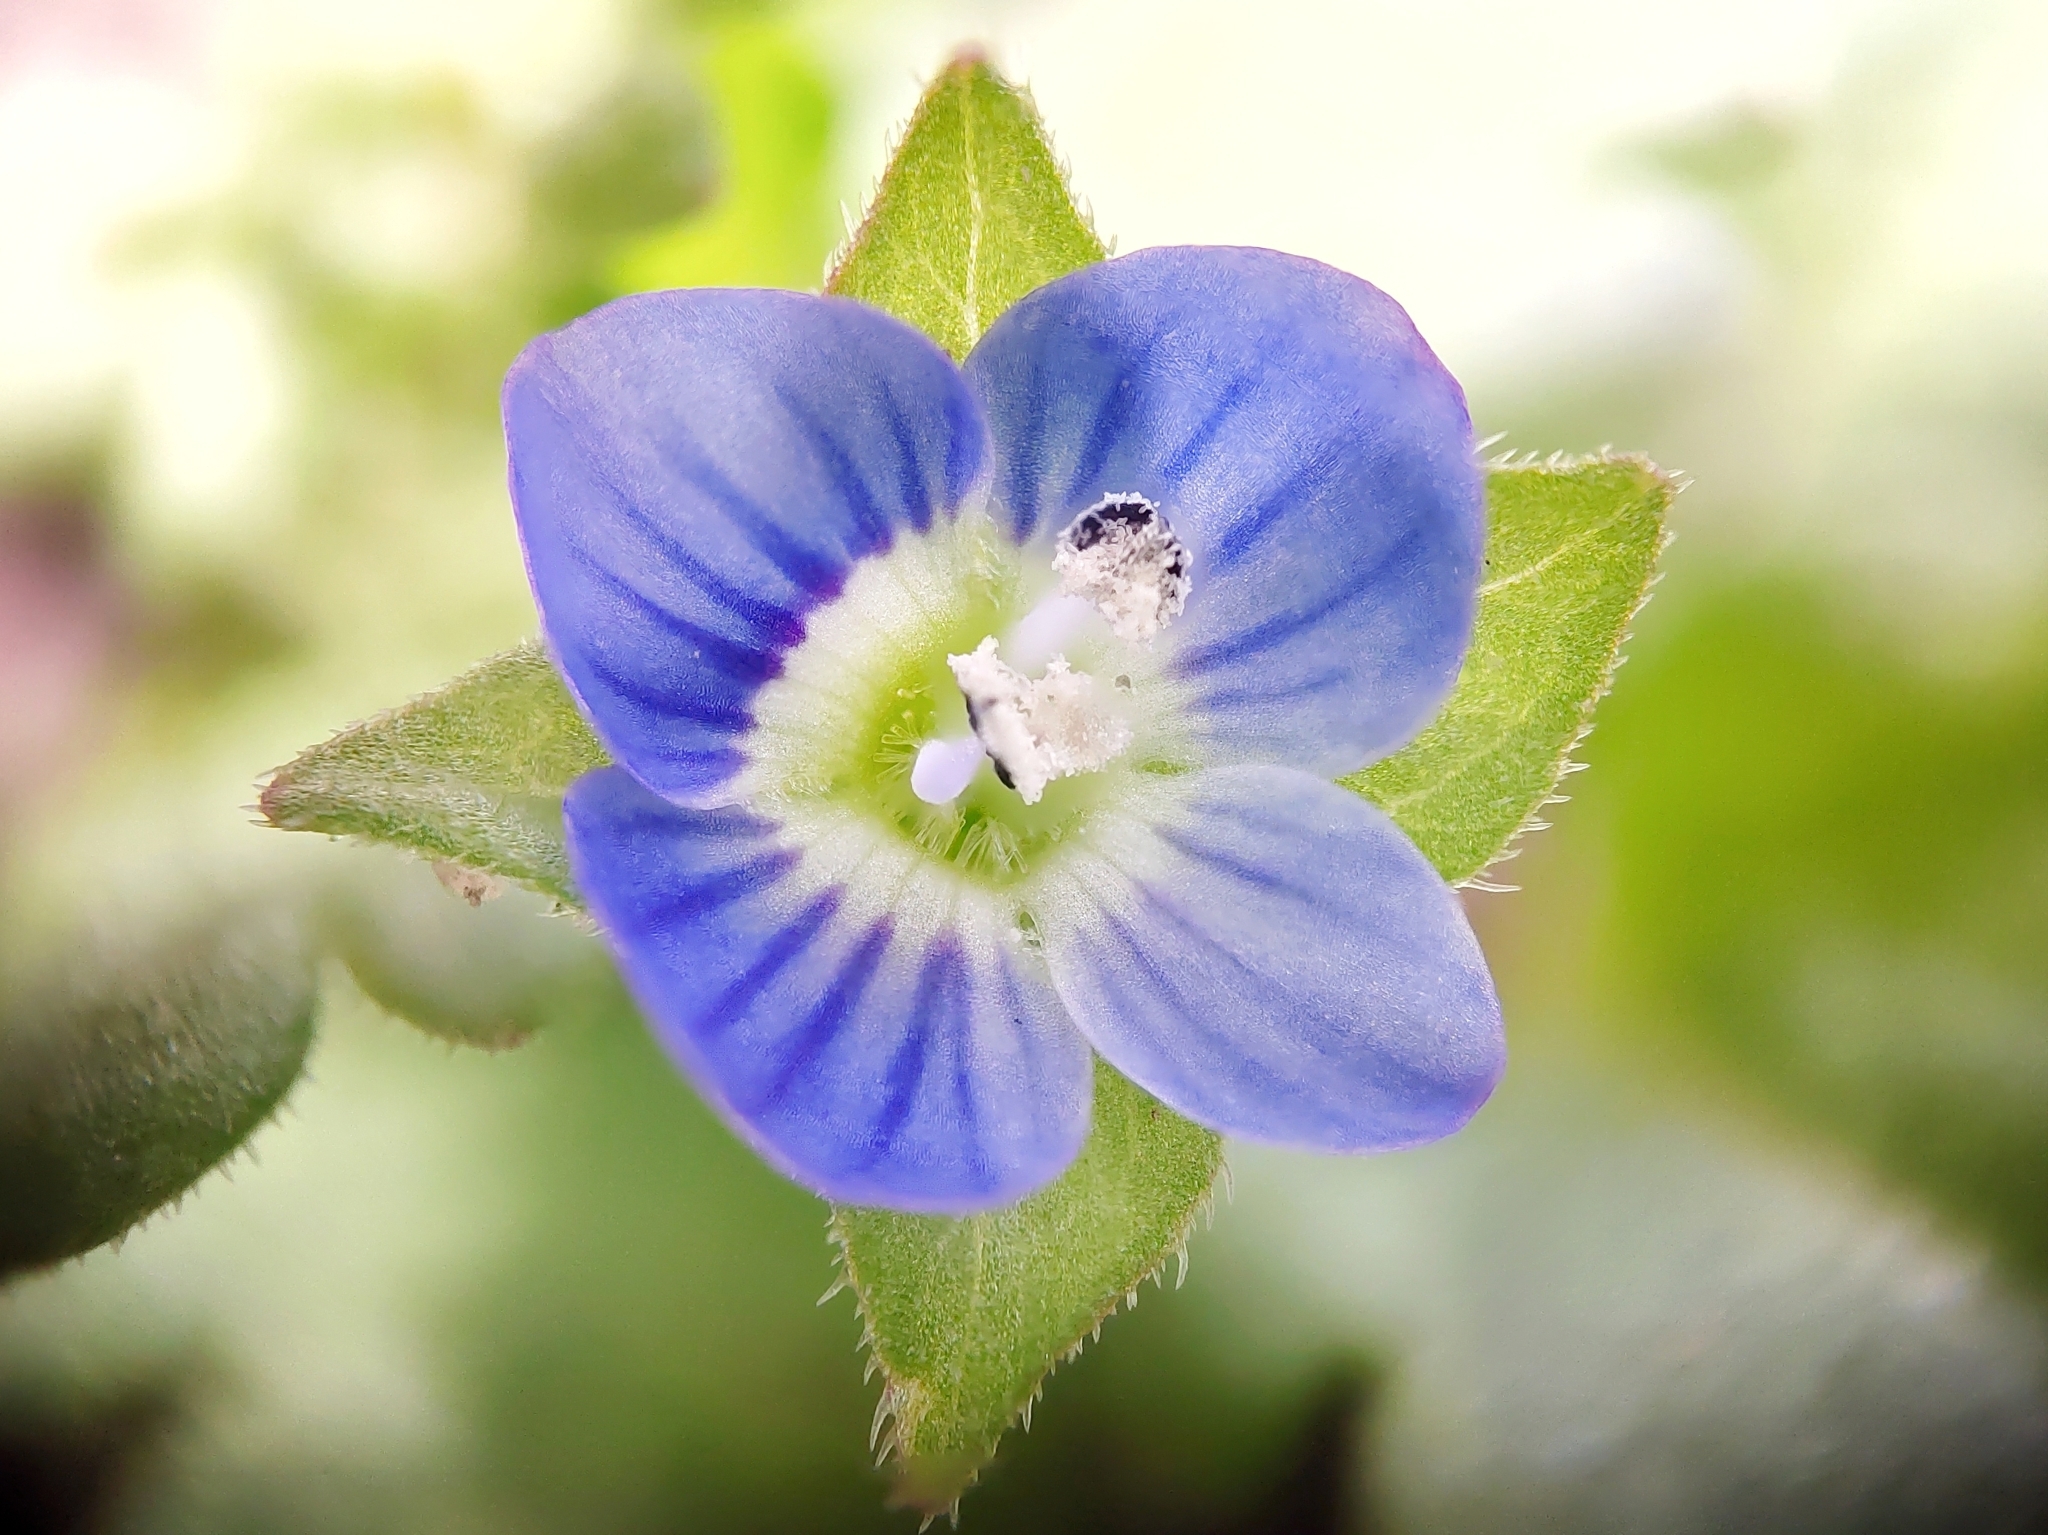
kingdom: Plantae
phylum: Tracheophyta
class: Magnoliopsida
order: Lamiales
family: Plantaginaceae
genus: Veronica
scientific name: Veronica persica
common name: Common field-speedwell
